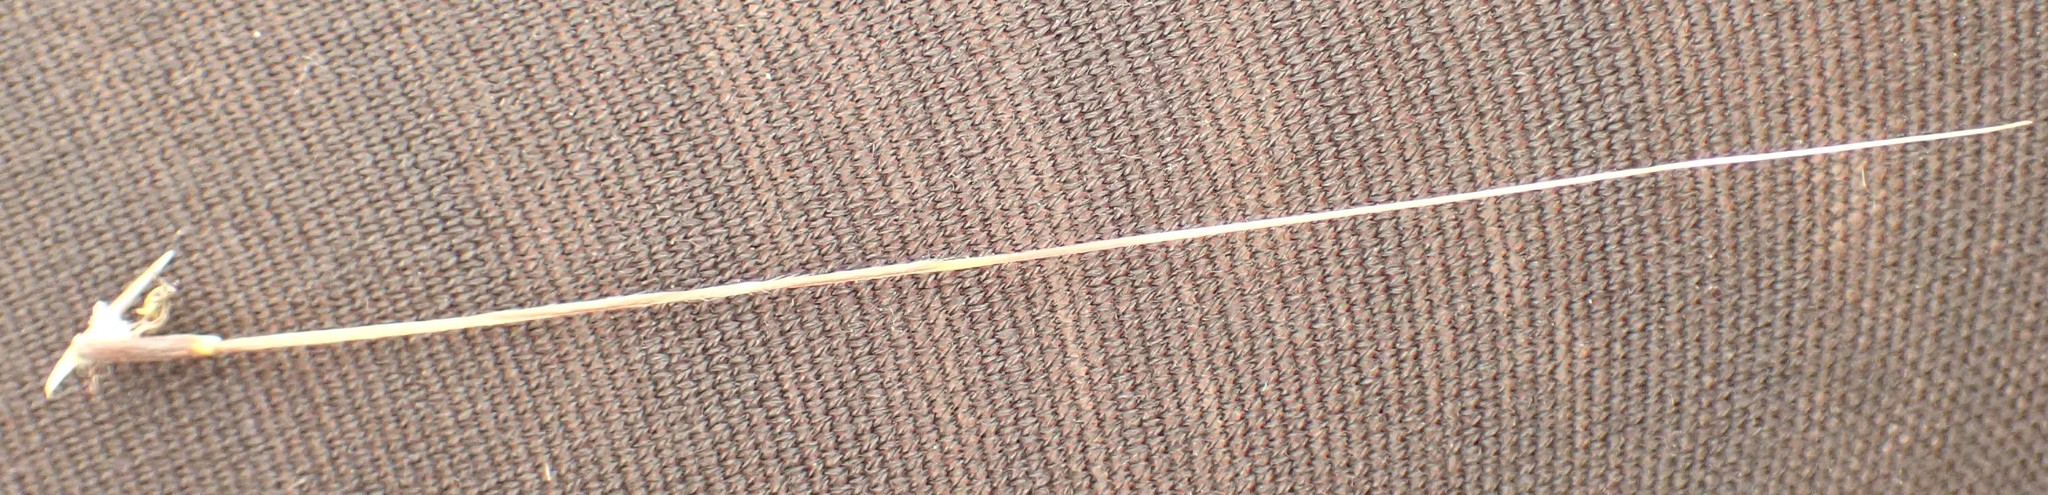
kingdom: Plantae
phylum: Tracheophyta
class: Liliopsida
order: Poales
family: Poaceae
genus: Austrostipa
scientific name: Austrostipa rudis
